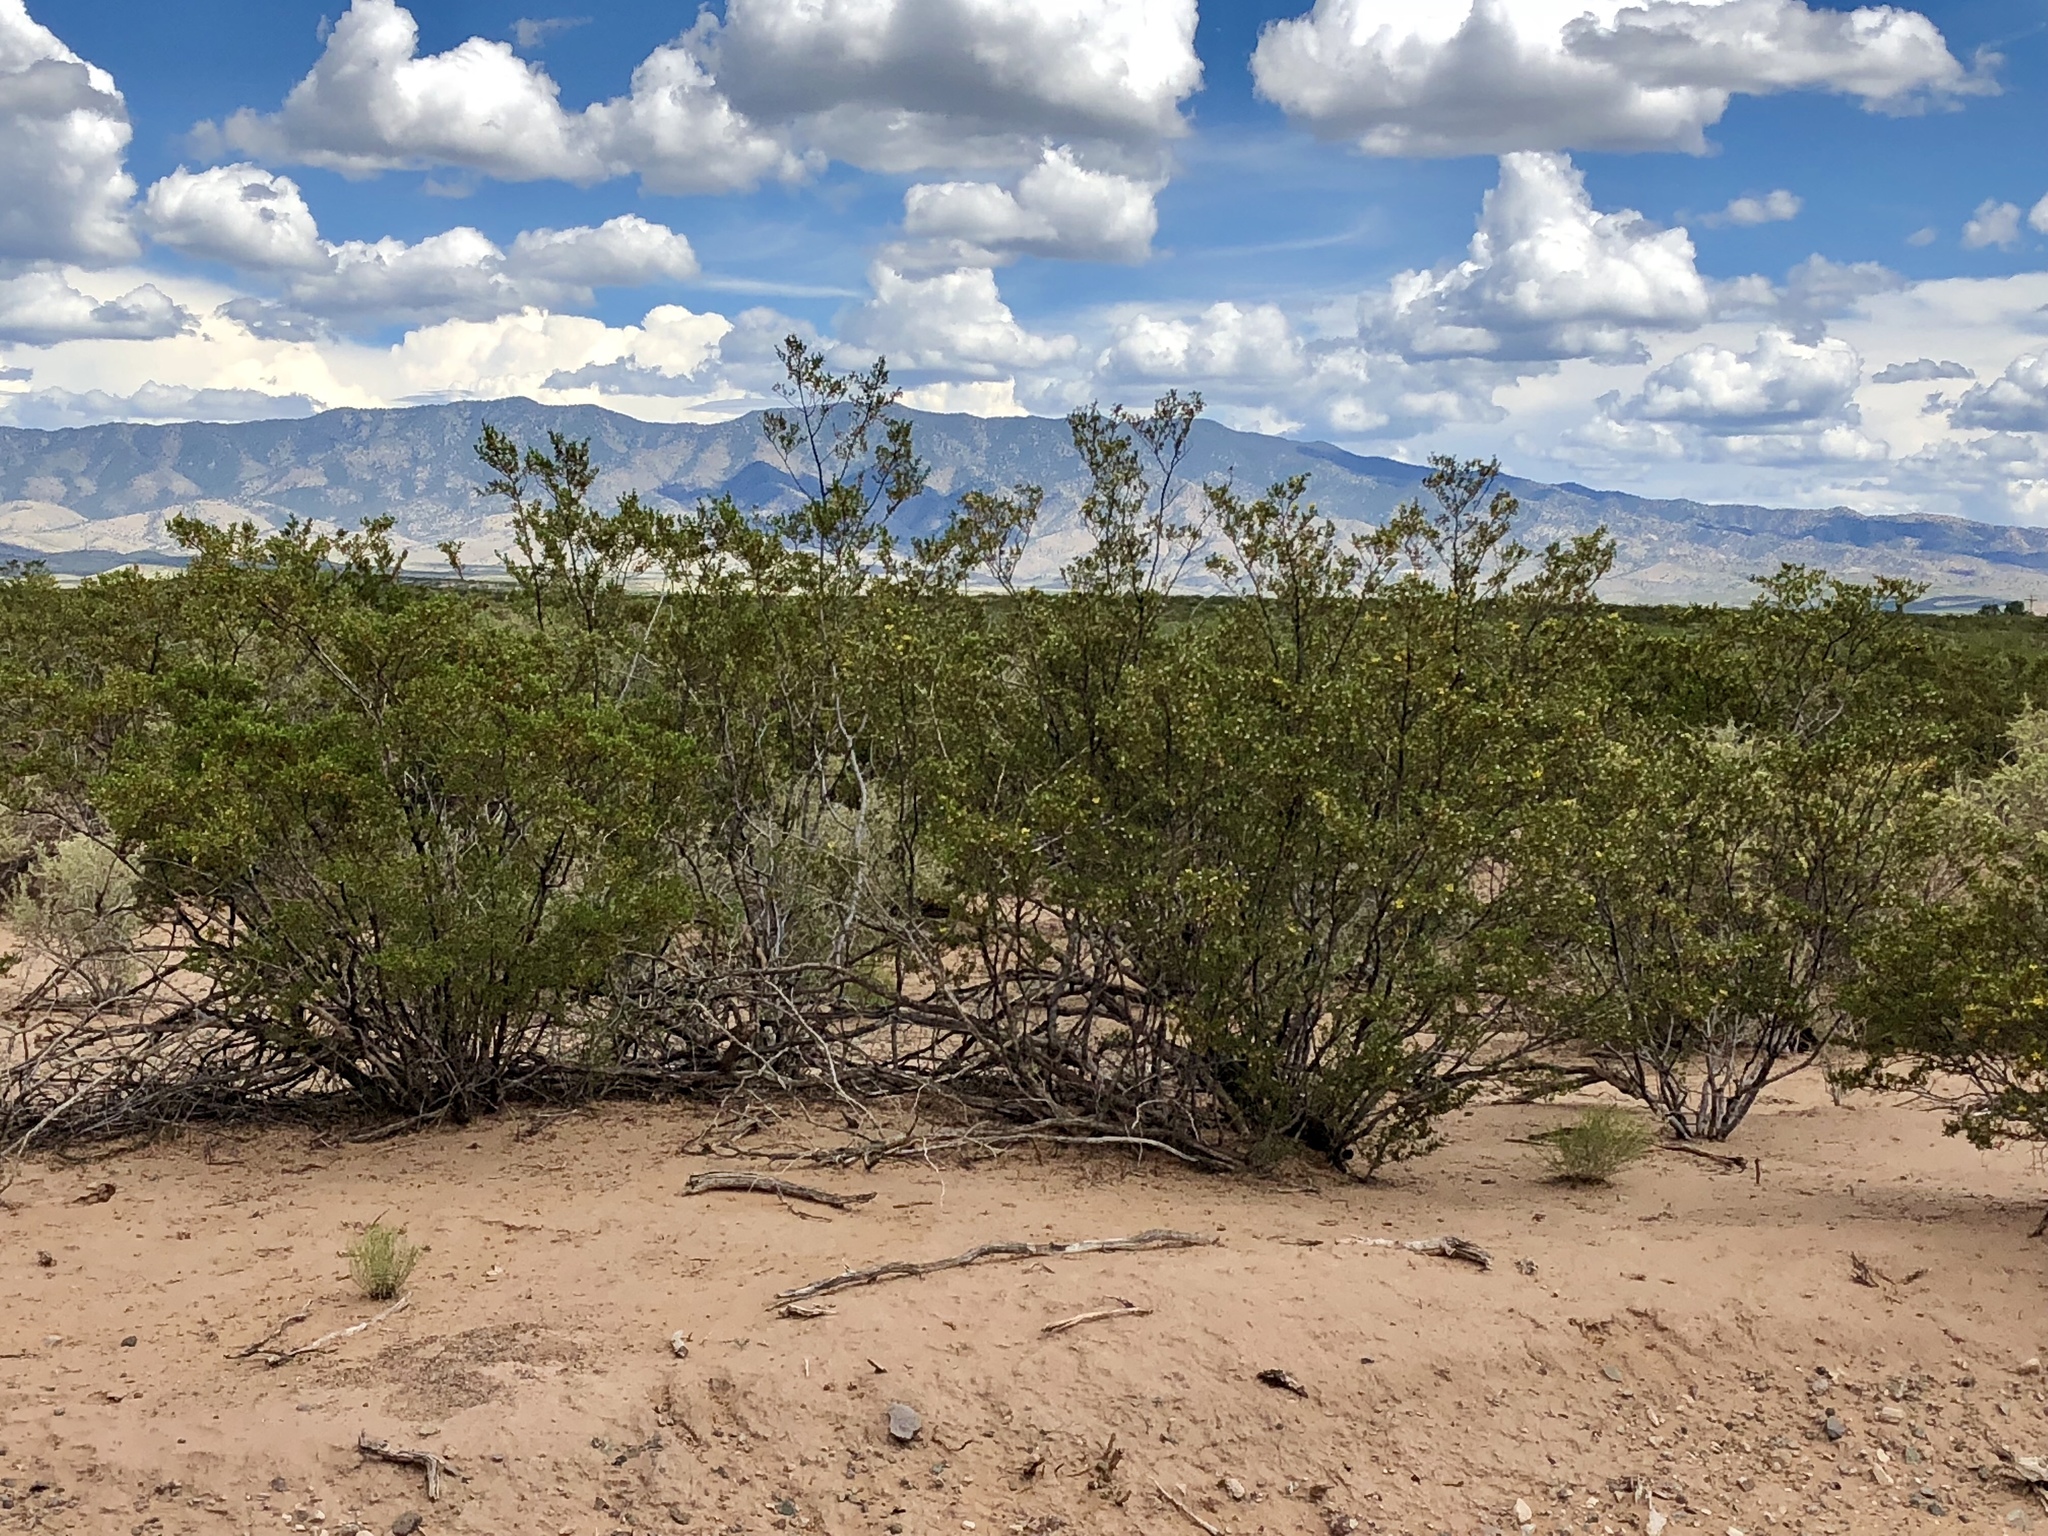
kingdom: Plantae
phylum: Tracheophyta
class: Magnoliopsida
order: Zygophyllales
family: Zygophyllaceae
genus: Larrea
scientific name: Larrea tridentata
